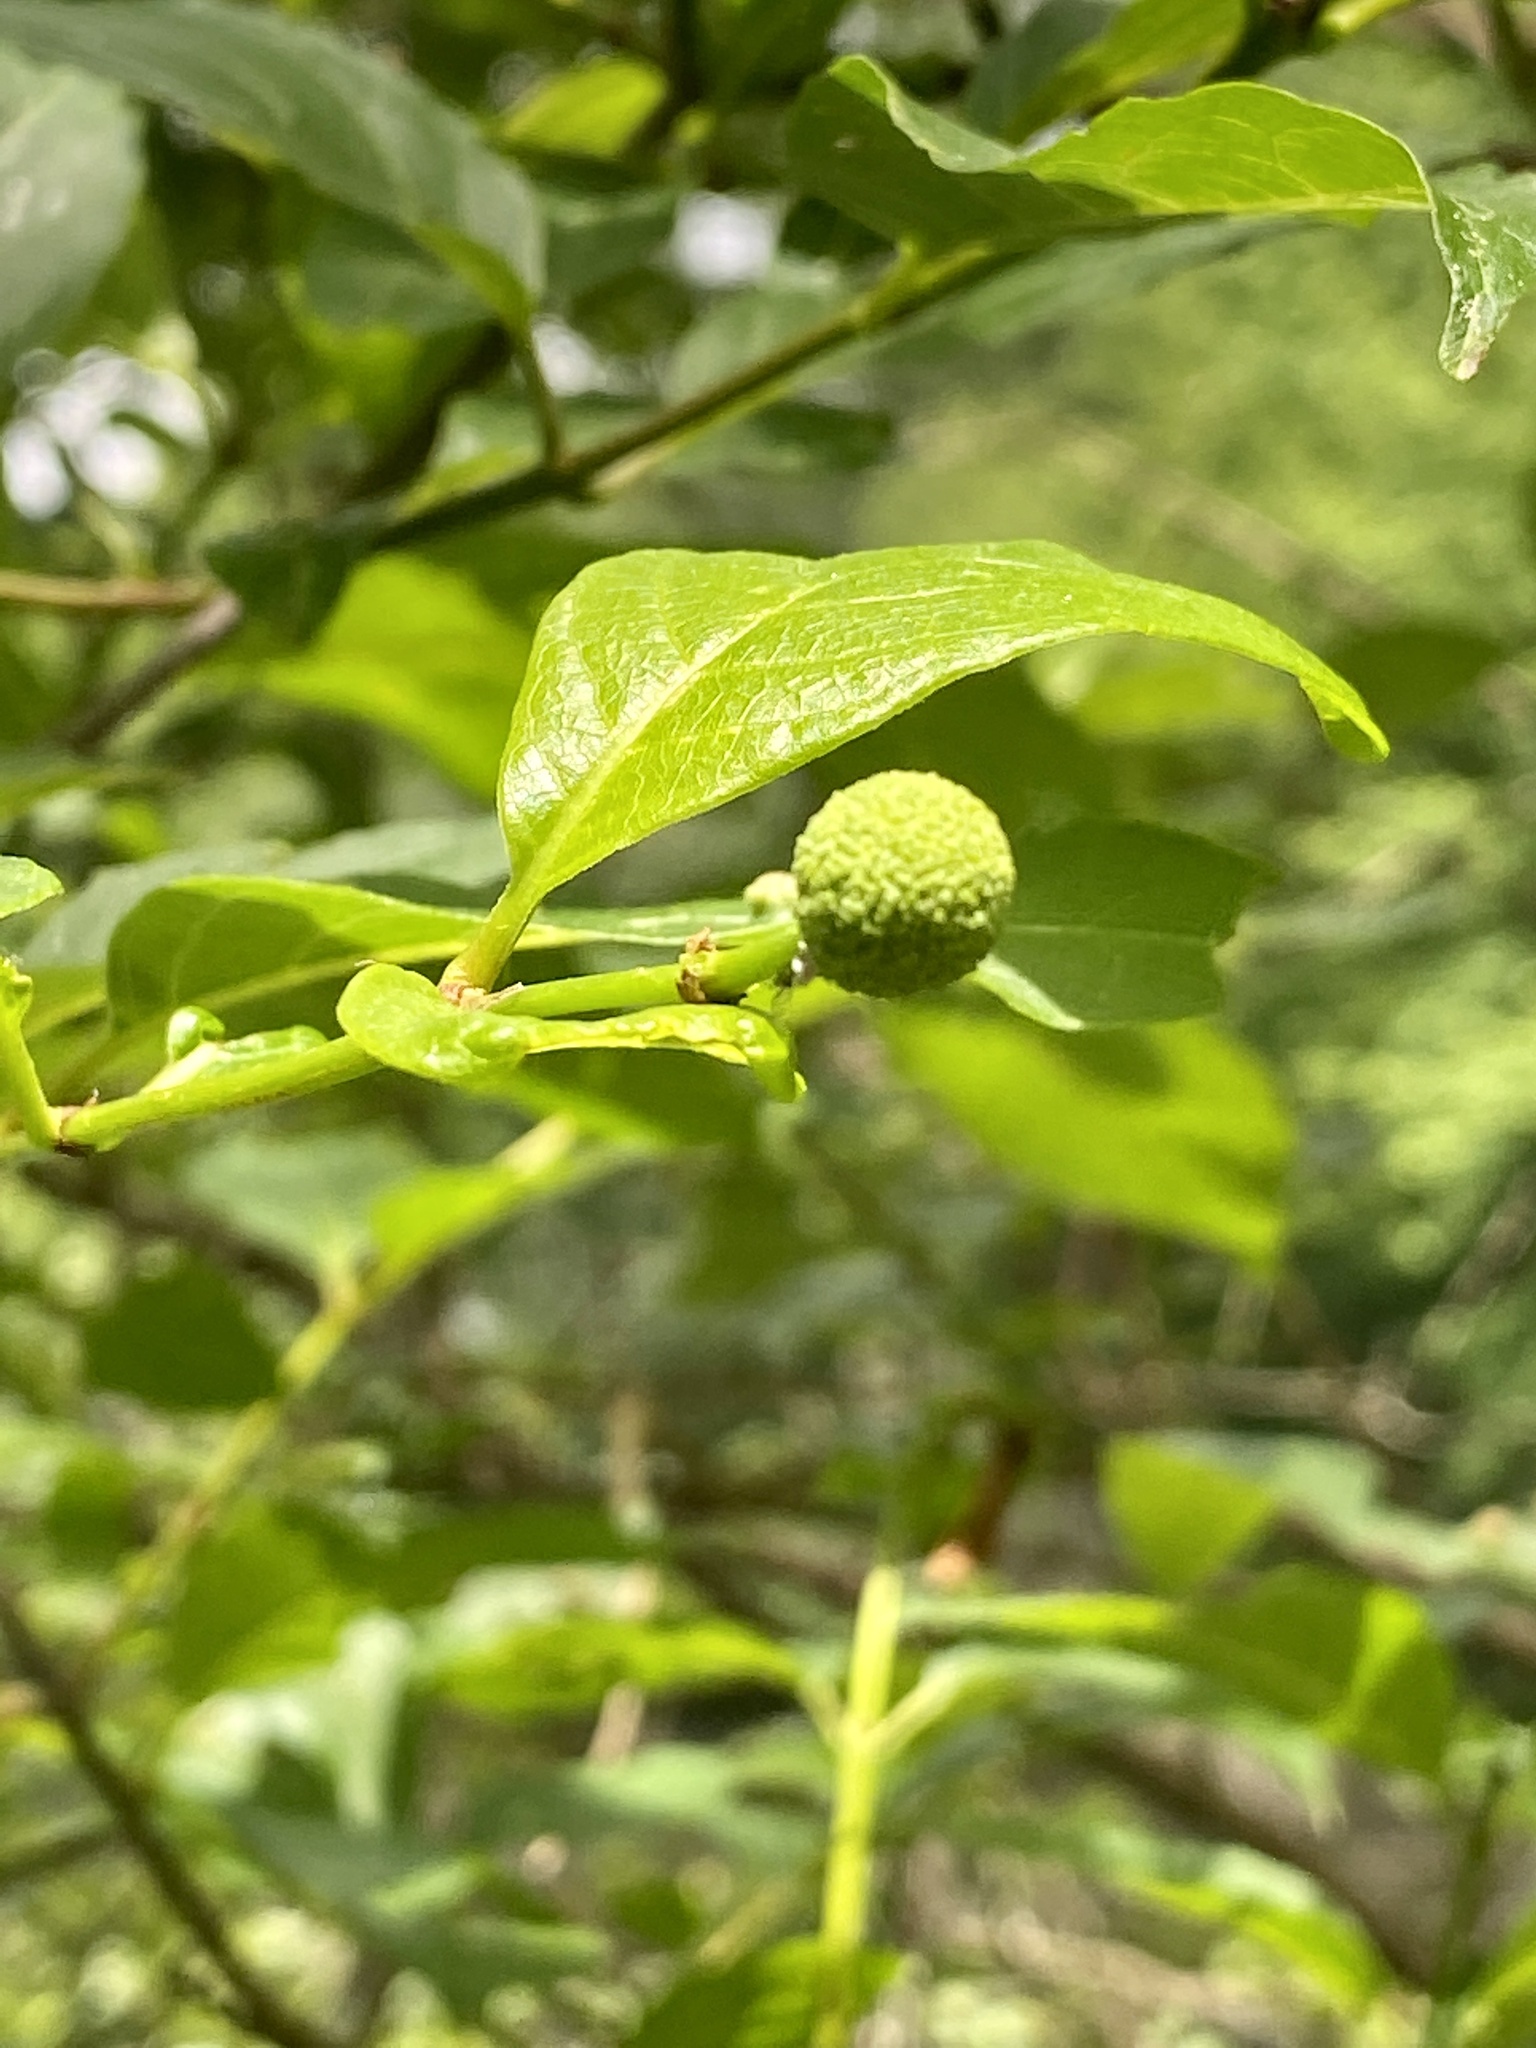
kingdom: Plantae
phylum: Tracheophyta
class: Magnoliopsida
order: Gentianales
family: Rubiaceae
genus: Cephalanthus
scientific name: Cephalanthus occidentalis
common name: Button-willow
